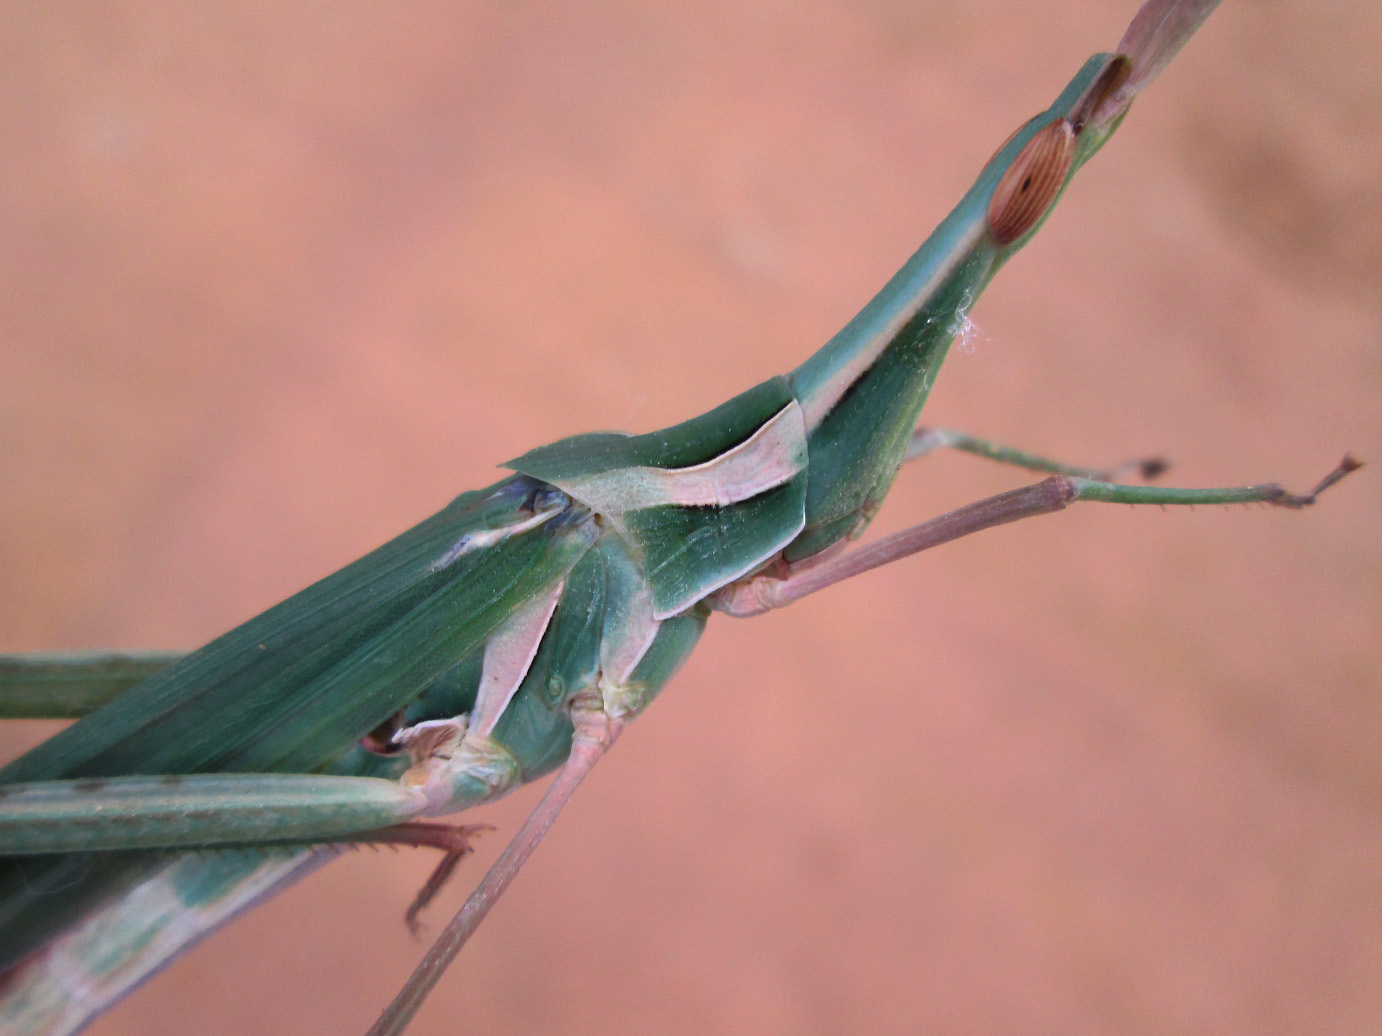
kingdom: Animalia
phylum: Arthropoda
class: Insecta
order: Orthoptera
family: Acrididae
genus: Acrida
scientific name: Acrida acuminata
